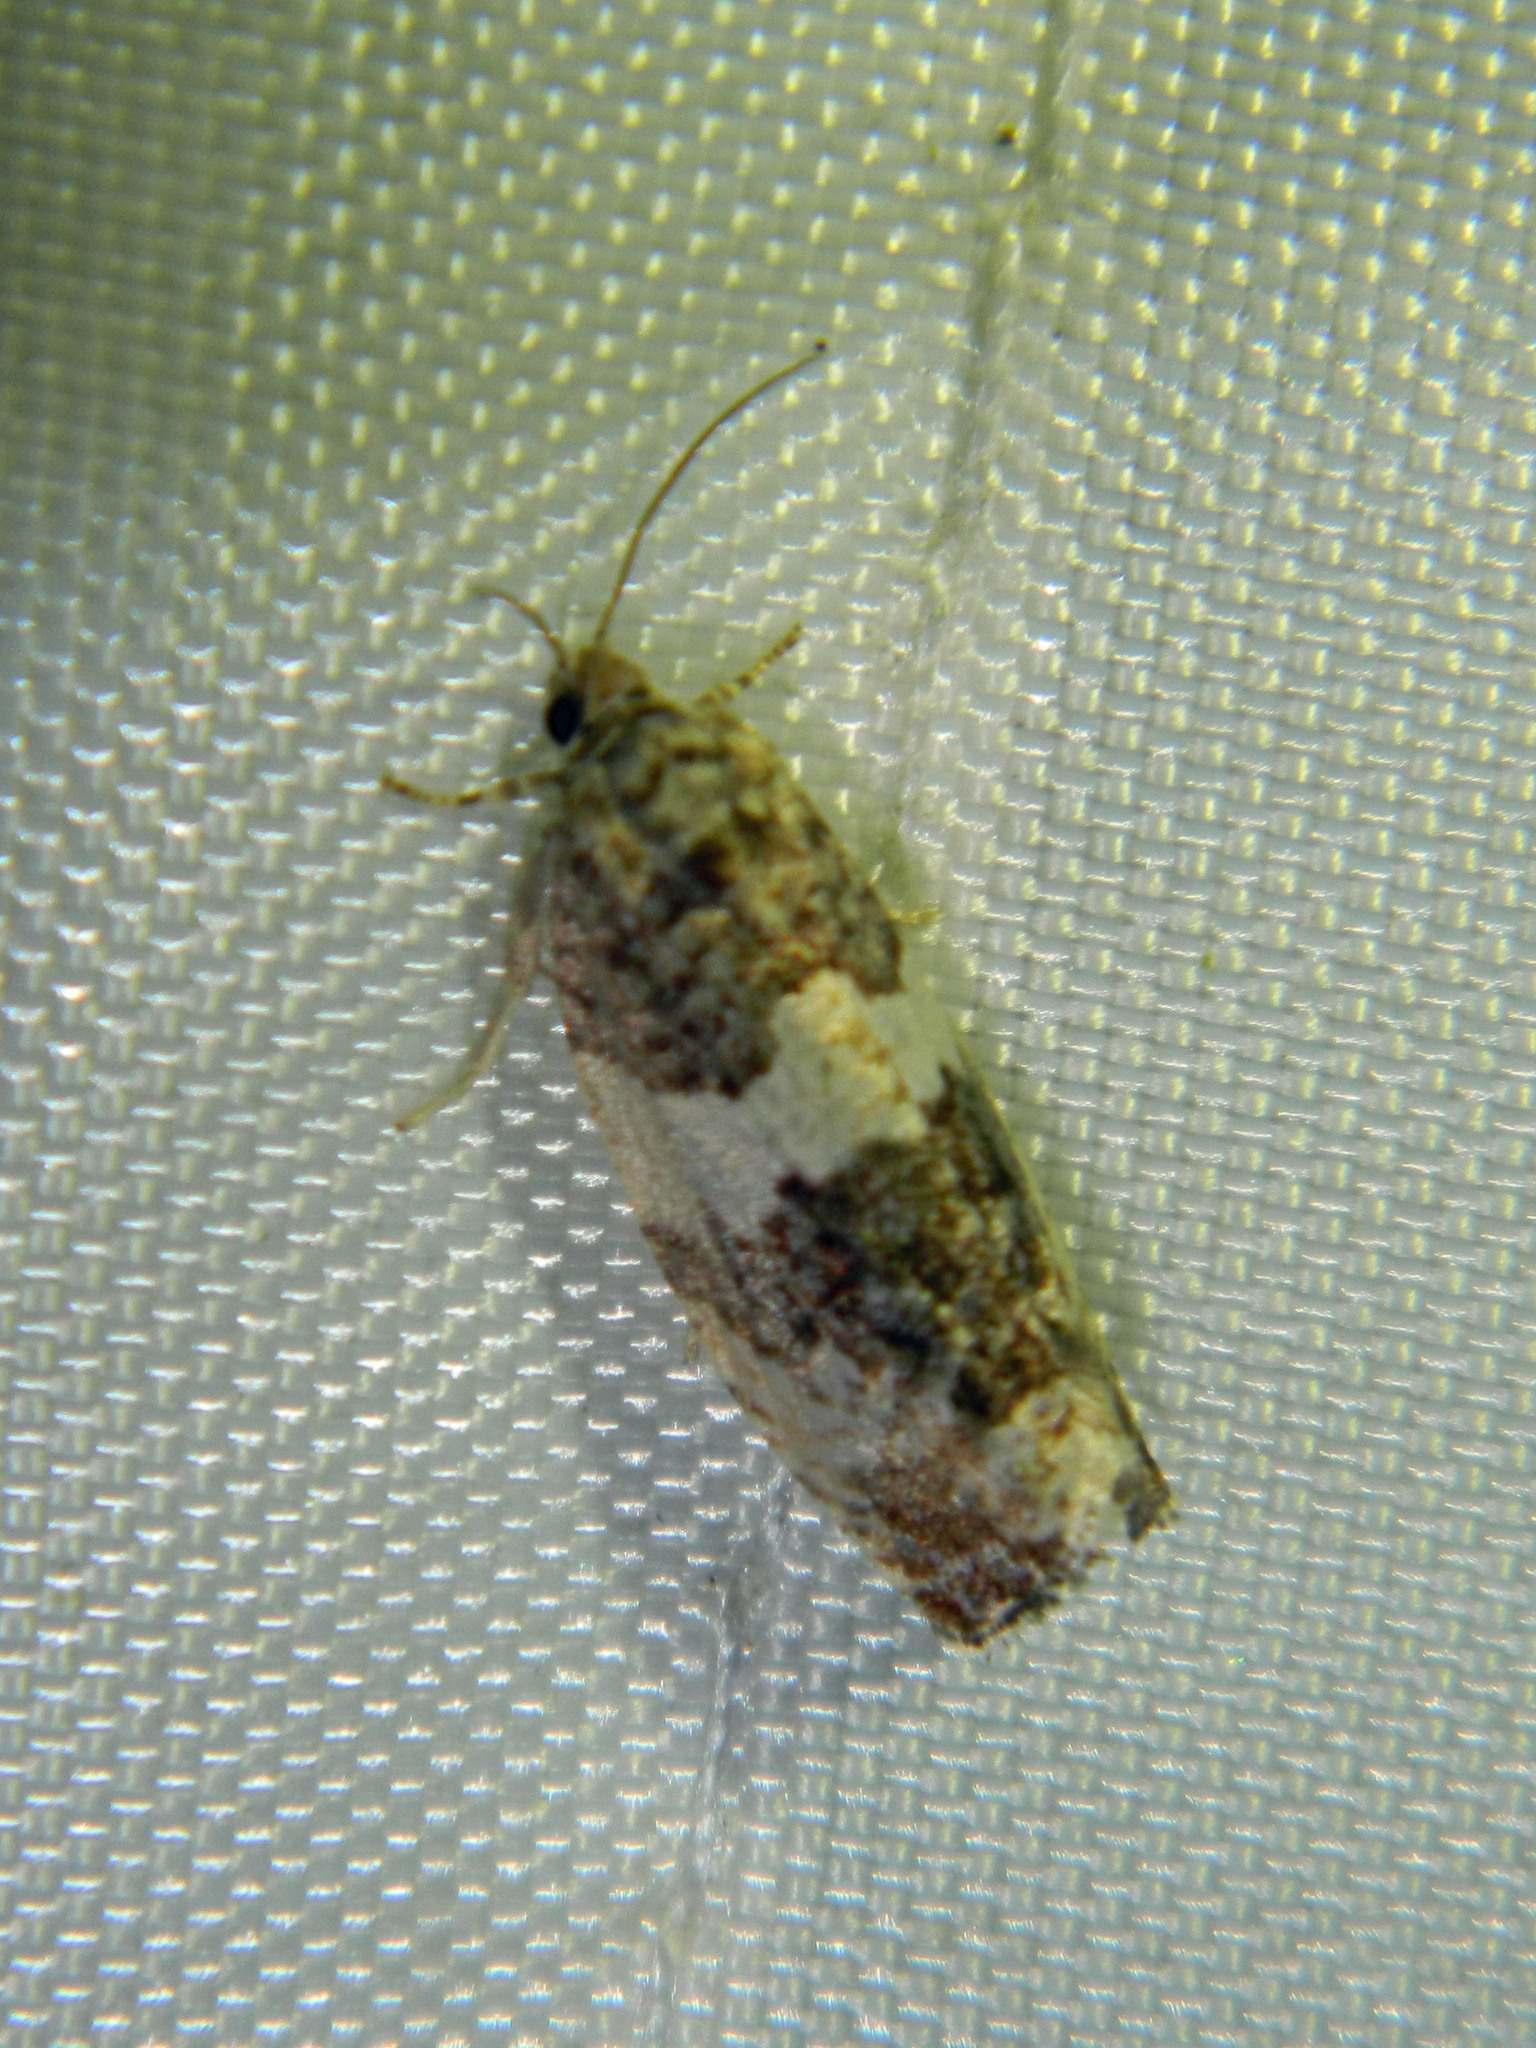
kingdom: Animalia
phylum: Arthropoda
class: Insecta
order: Lepidoptera
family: Tortricidae
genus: Pseudosciaphila
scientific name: Pseudosciaphila duplex
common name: Poplar leafroller moth
